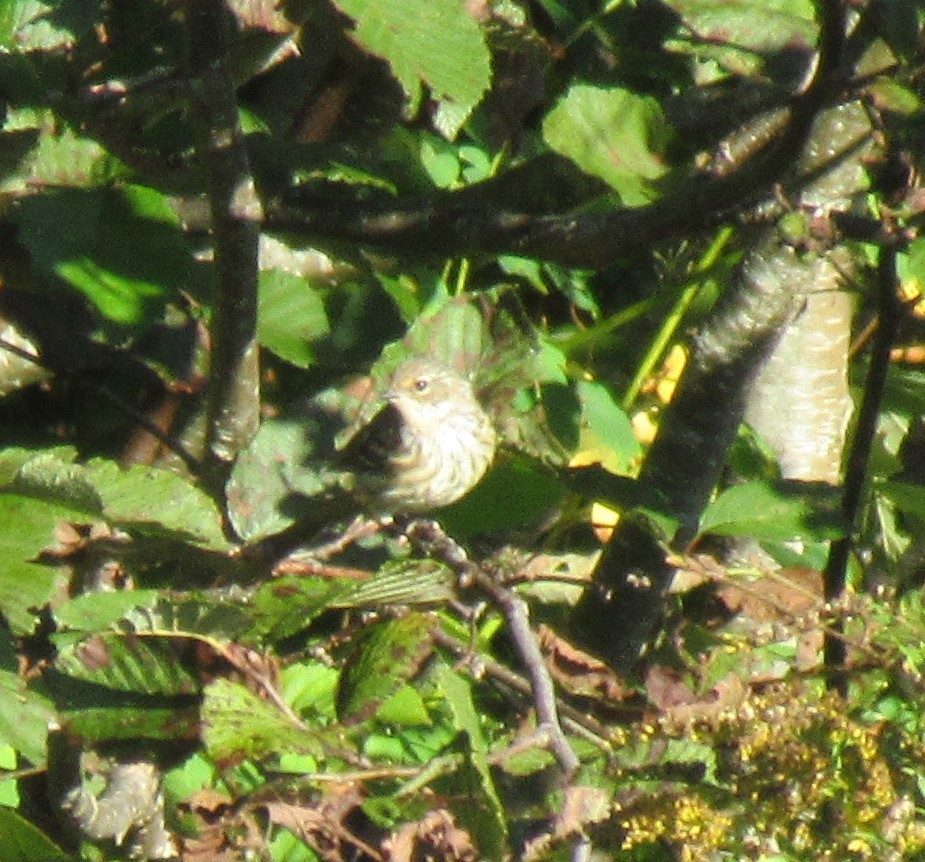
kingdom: Animalia
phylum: Chordata
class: Aves
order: Passeriformes
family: Parulidae
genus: Setophaga
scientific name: Setophaga coronata
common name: Myrtle warbler
